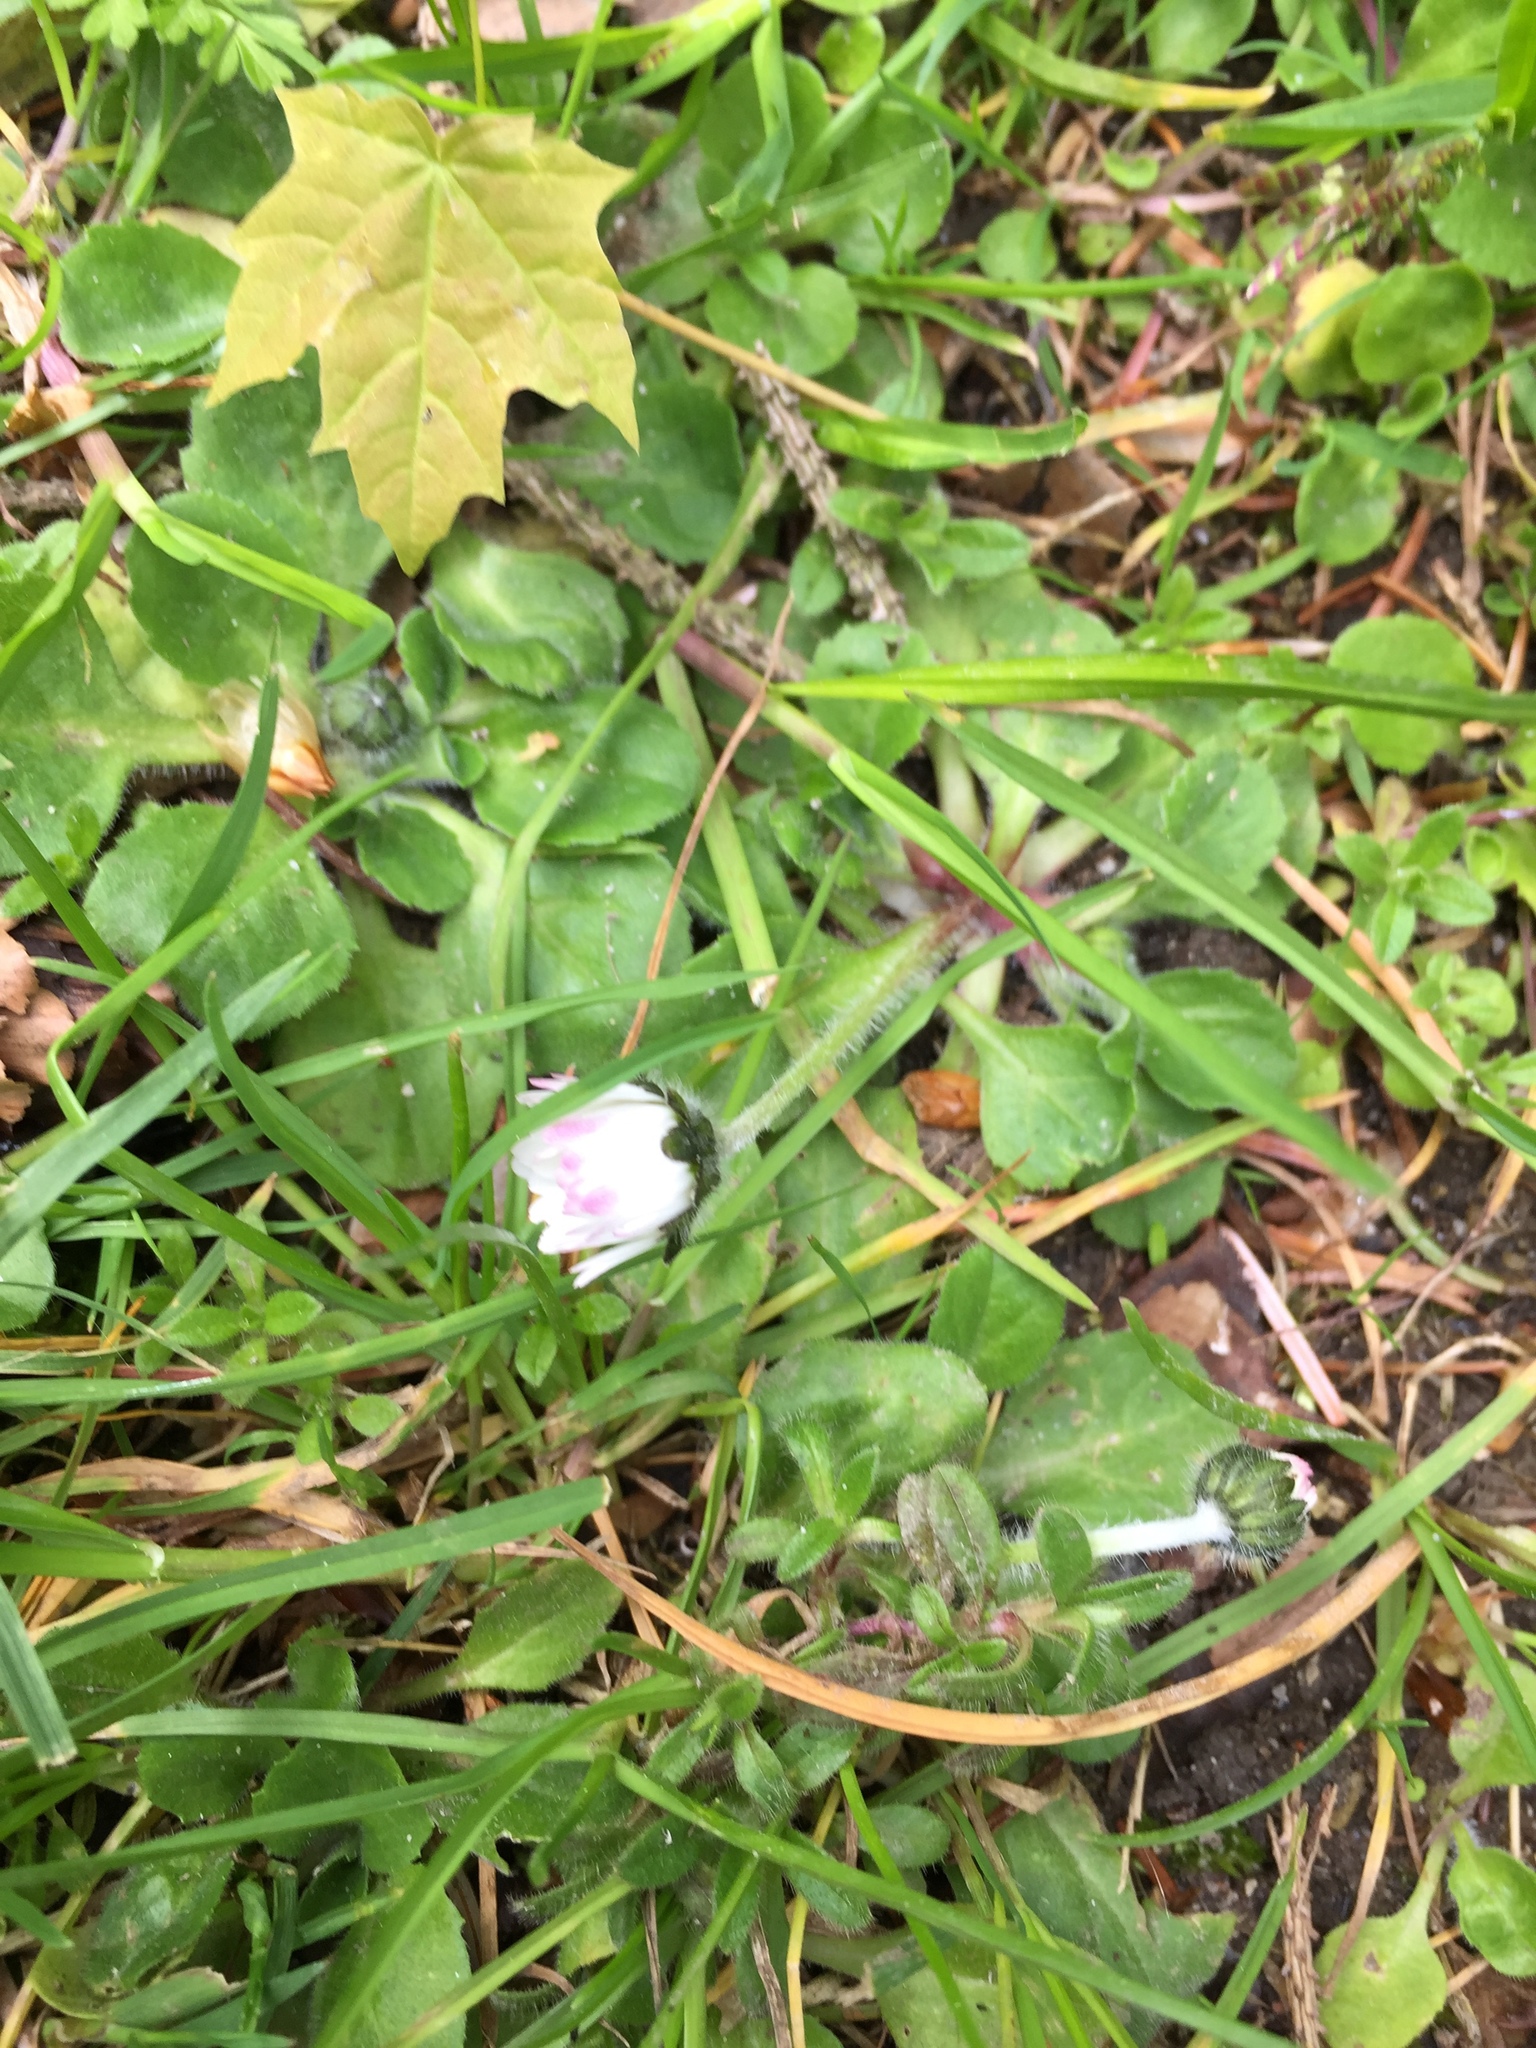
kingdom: Plantae
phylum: Tracheophyta
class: Magnoliopsida
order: Asterales
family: Asteraceae
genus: Bellis
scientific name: Bellis perennis
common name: Lawndaisy
